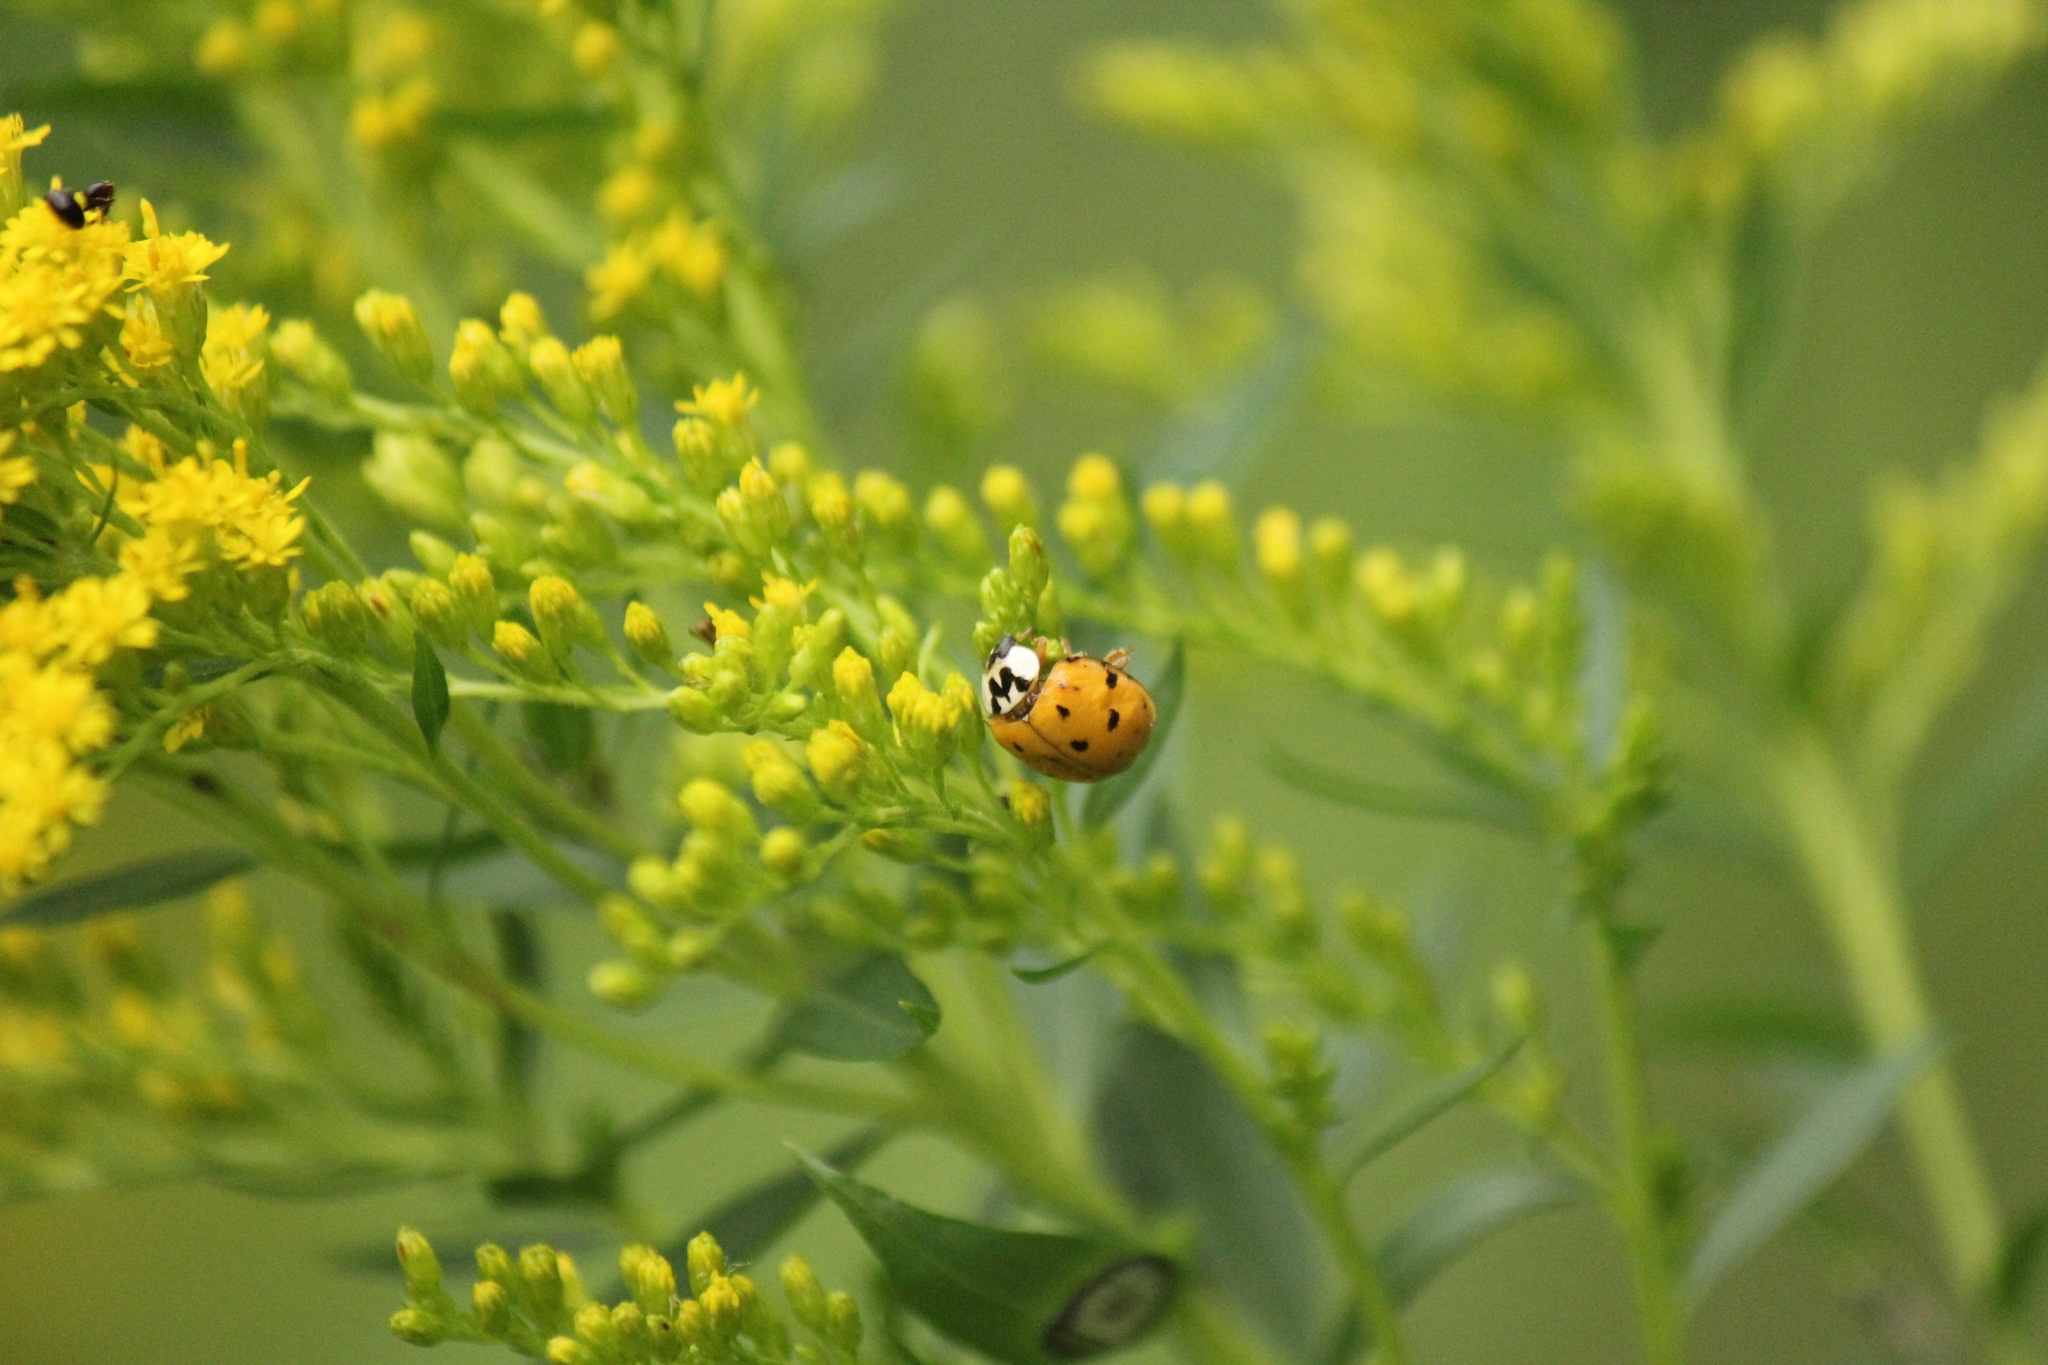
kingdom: Animalia
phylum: Arthropoda
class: Insecta
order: Coleoptera
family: Coccinellidae
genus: Harmonia
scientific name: Harmonia axyridis
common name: Harlequin ladybird
